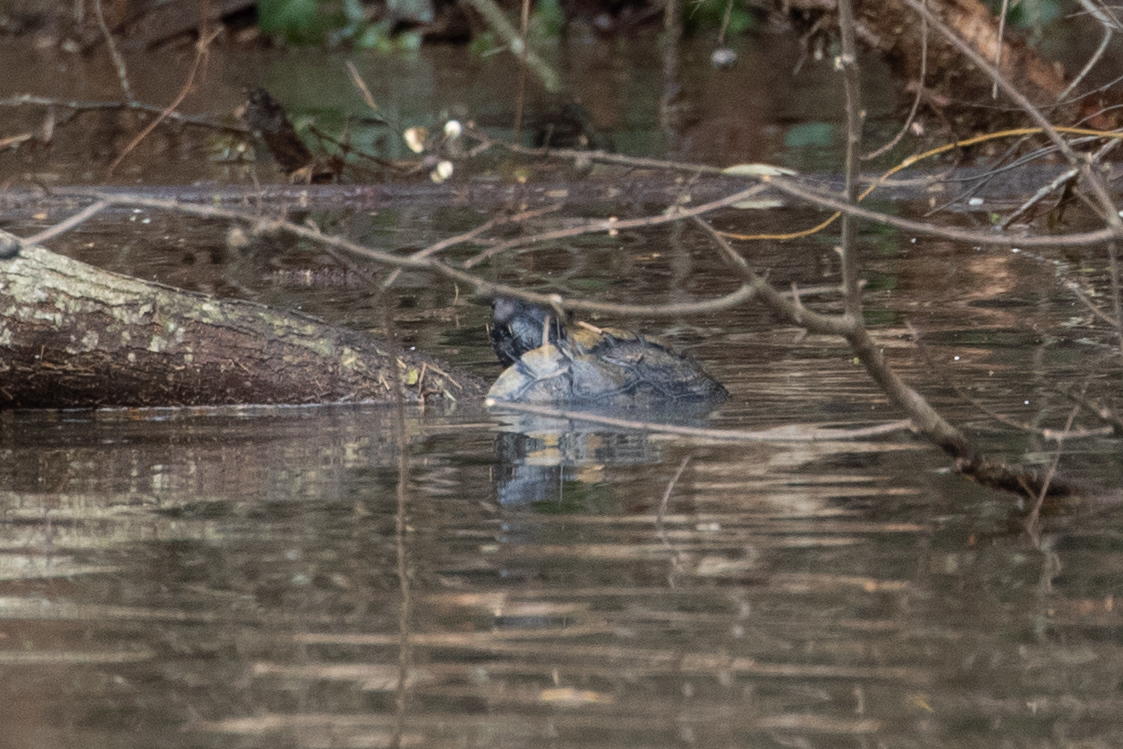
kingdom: Animalia
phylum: Chordata
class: Testudines
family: Emydidae
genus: Trachemys
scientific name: Trachemys scripta
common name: Slider
